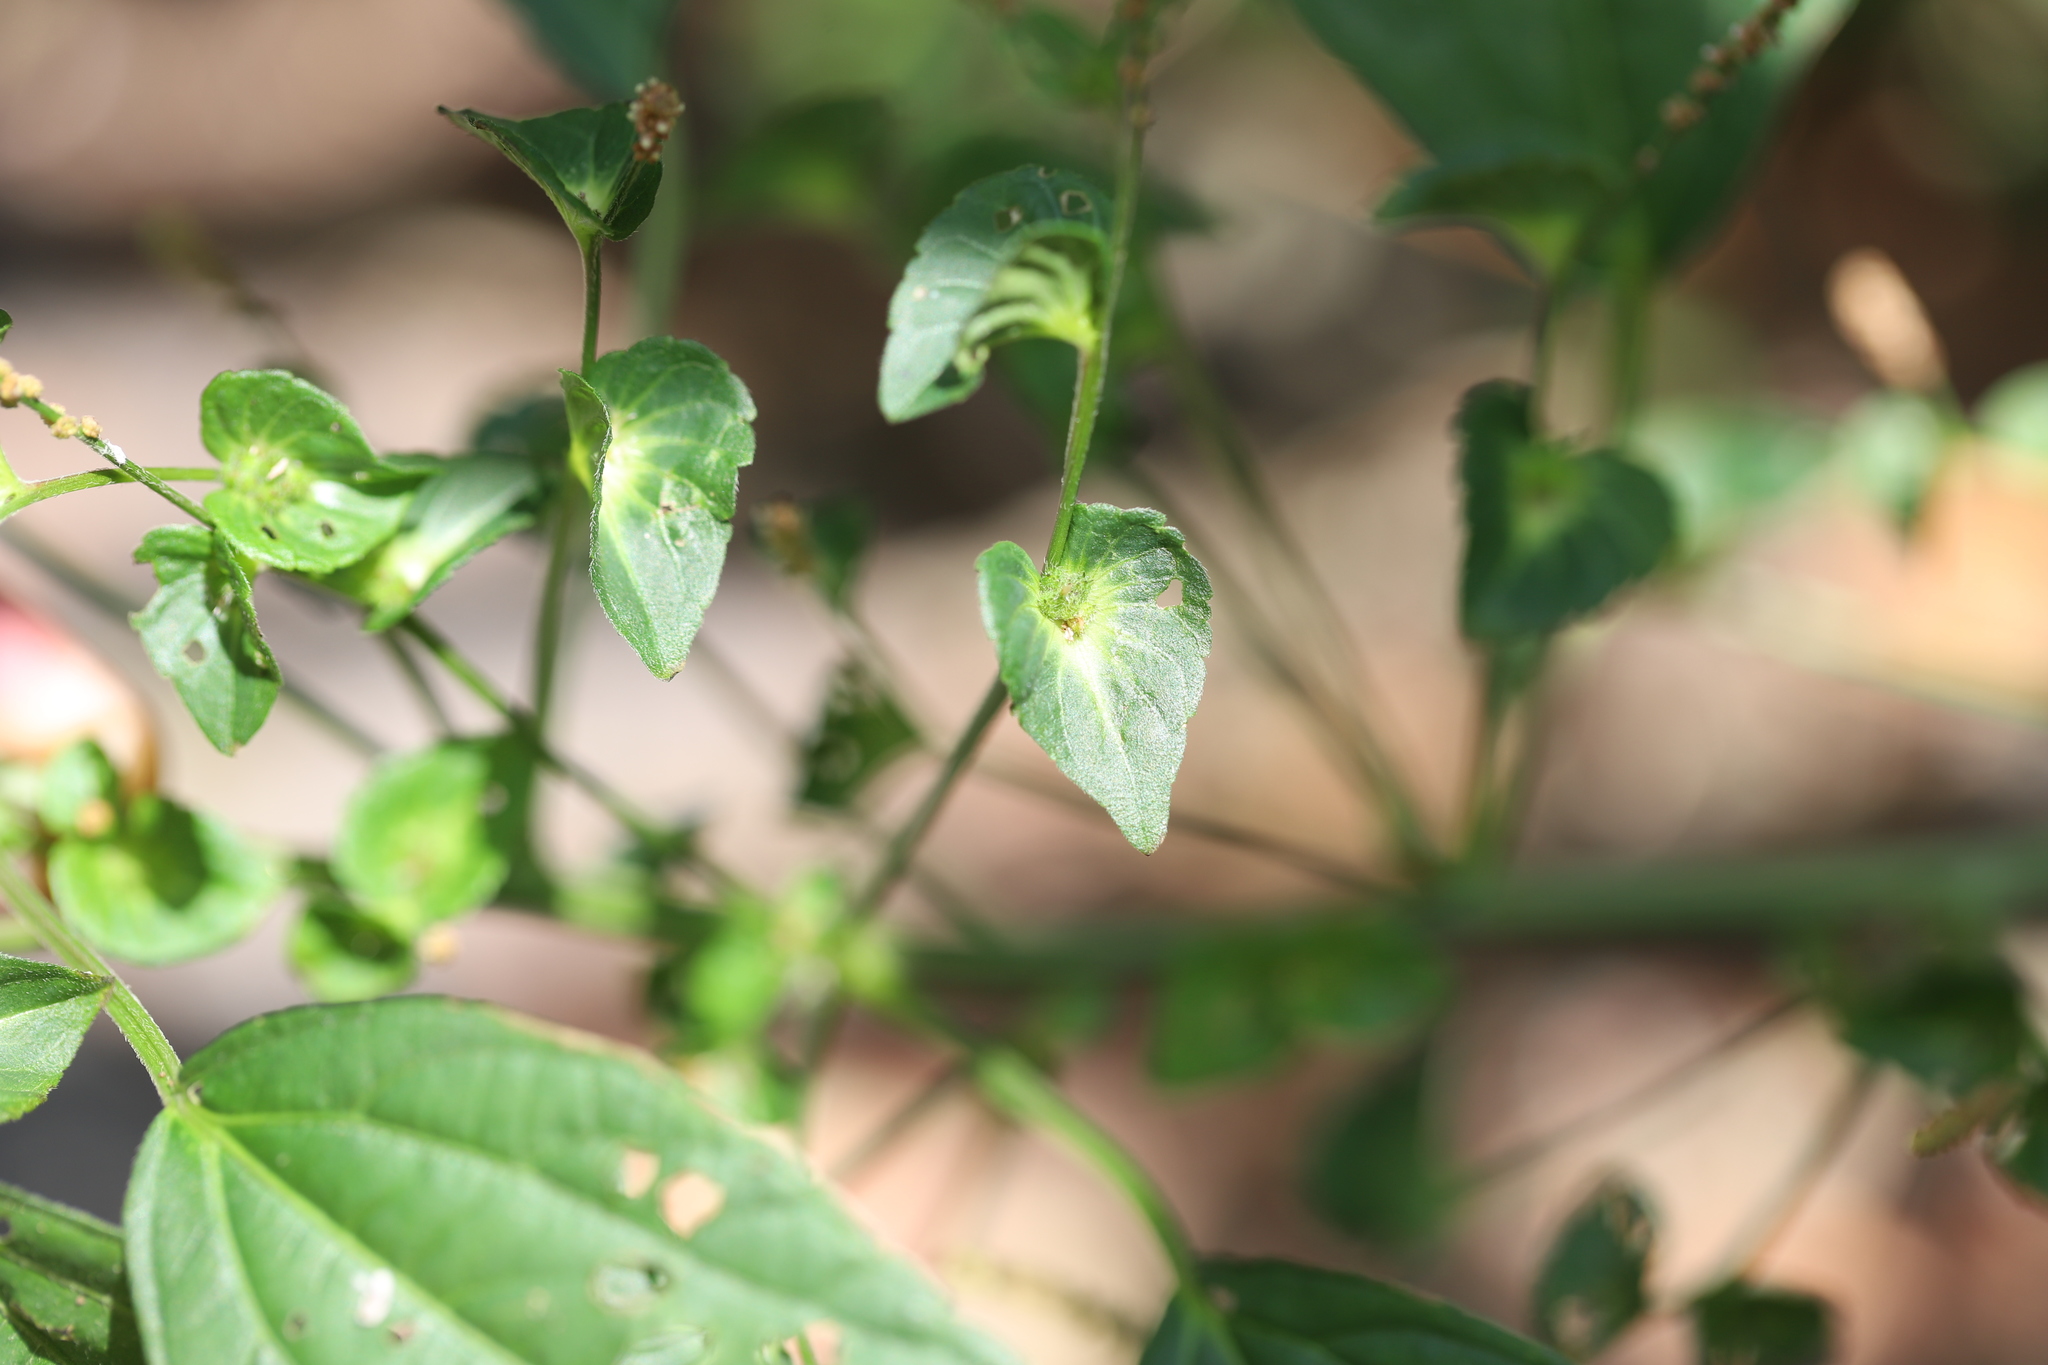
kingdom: Plantae
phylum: Tracheophyta
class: Magnoliopsida
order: Malpighiales
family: Euphorbiaceae
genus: Acalypha
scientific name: Acalypha australis
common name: Asian copperleaf
